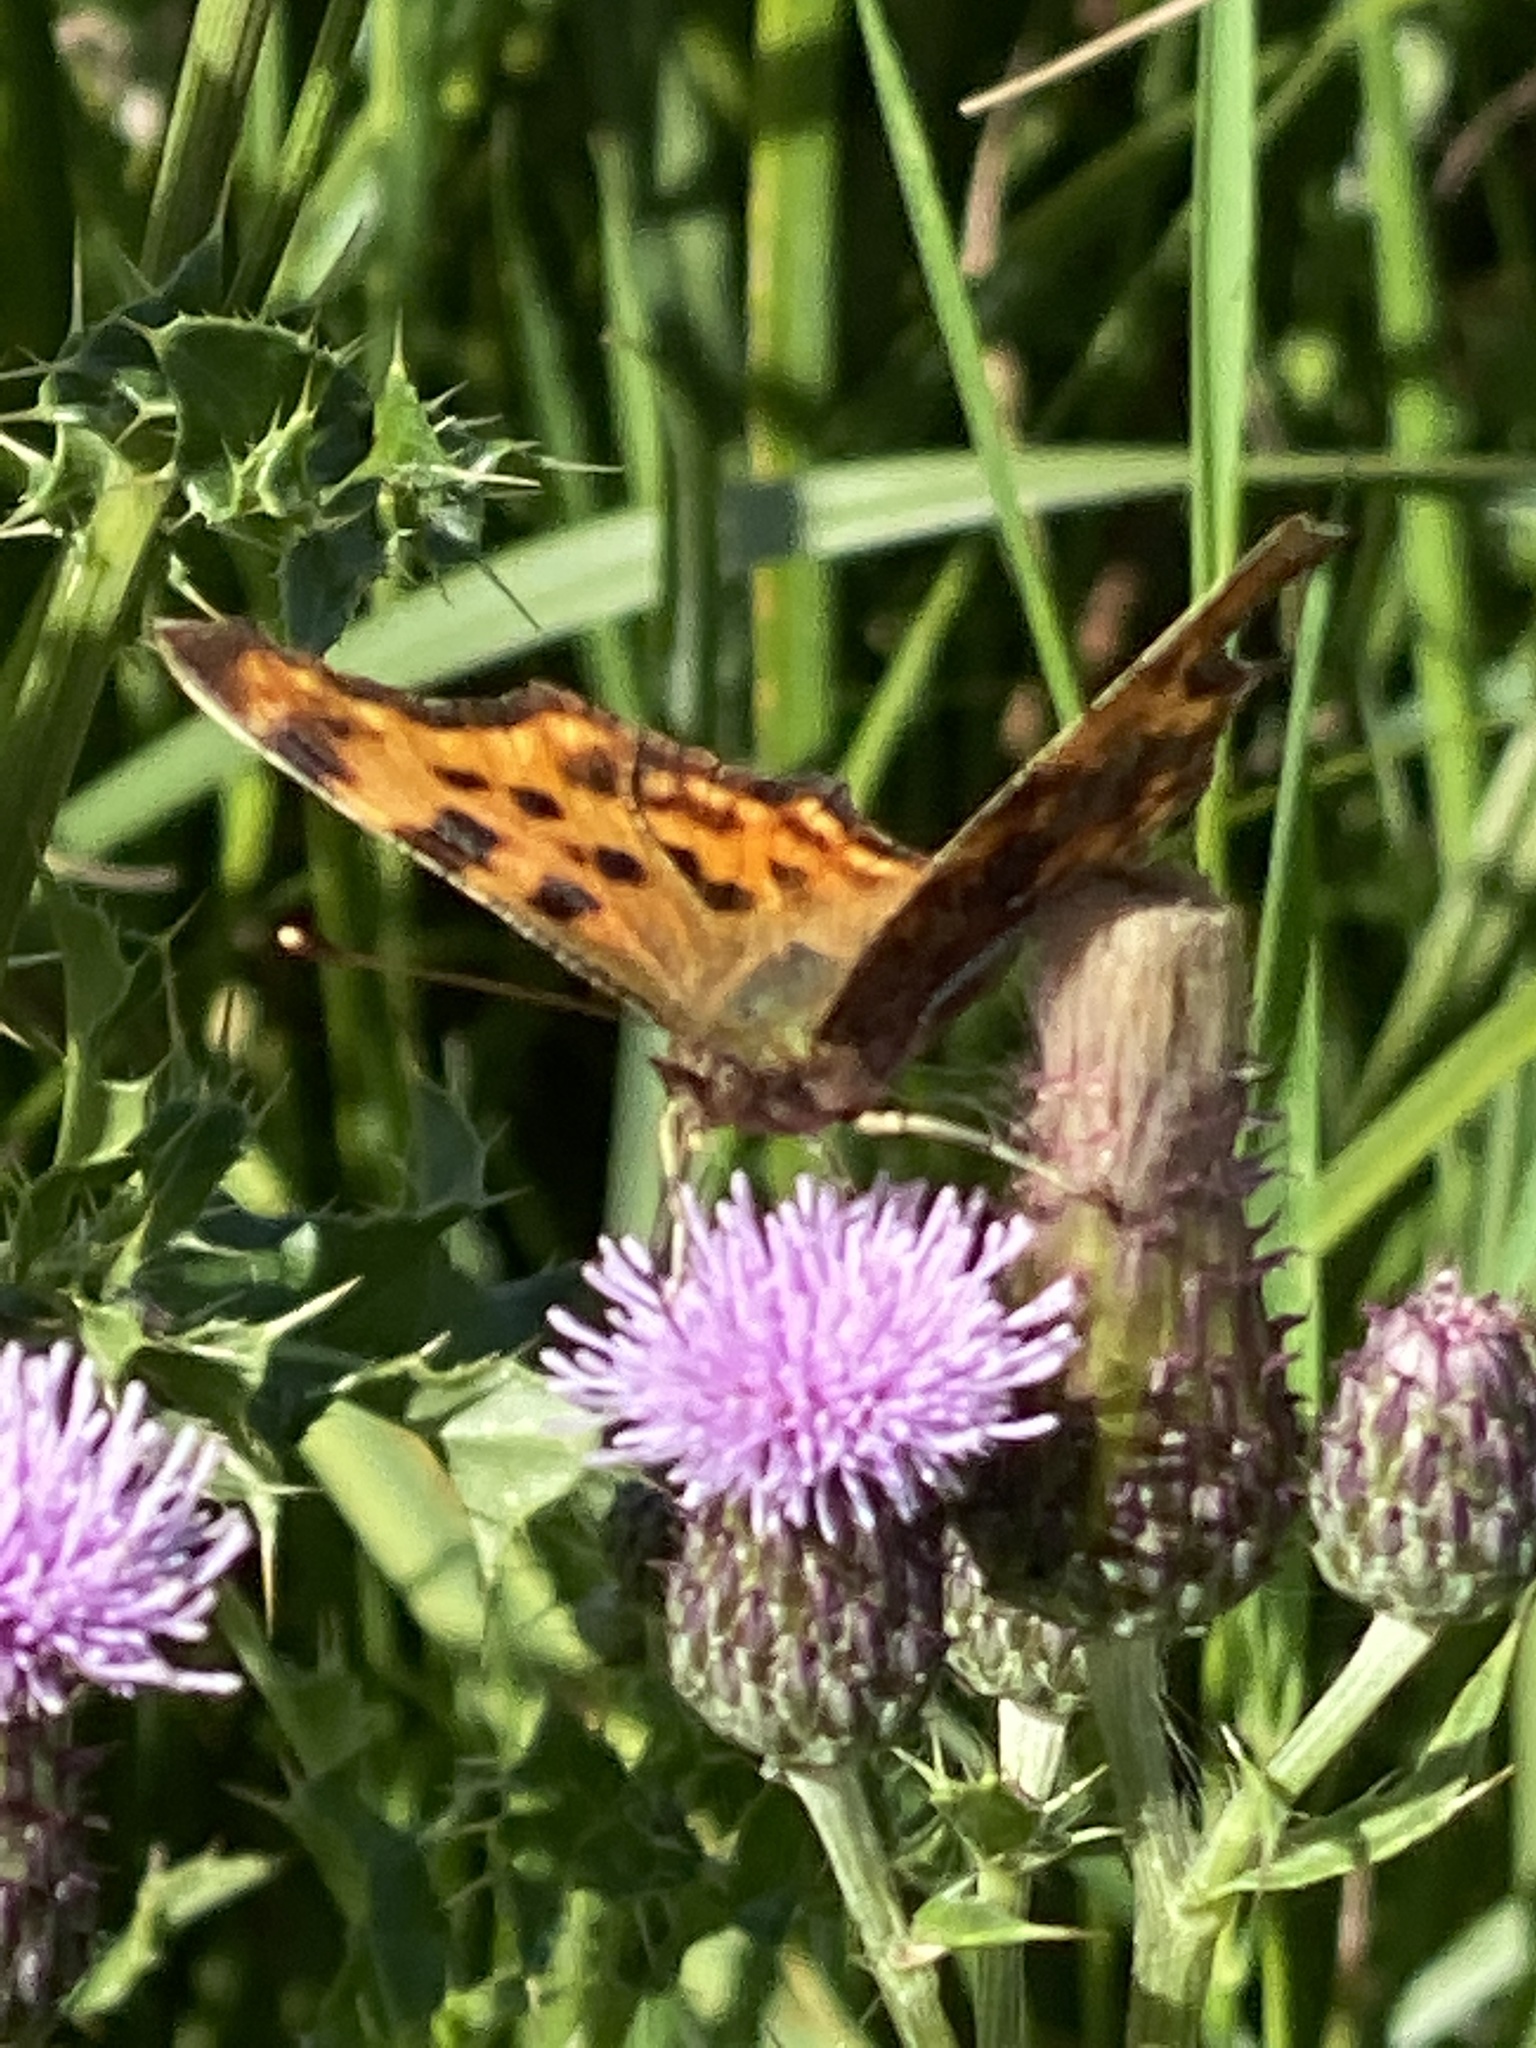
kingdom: Animalia
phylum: Arthropoda
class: Insecta
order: Lepidoptera
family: Nymphalidae
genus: Polygonia
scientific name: Polygonia c-album
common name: Comma
